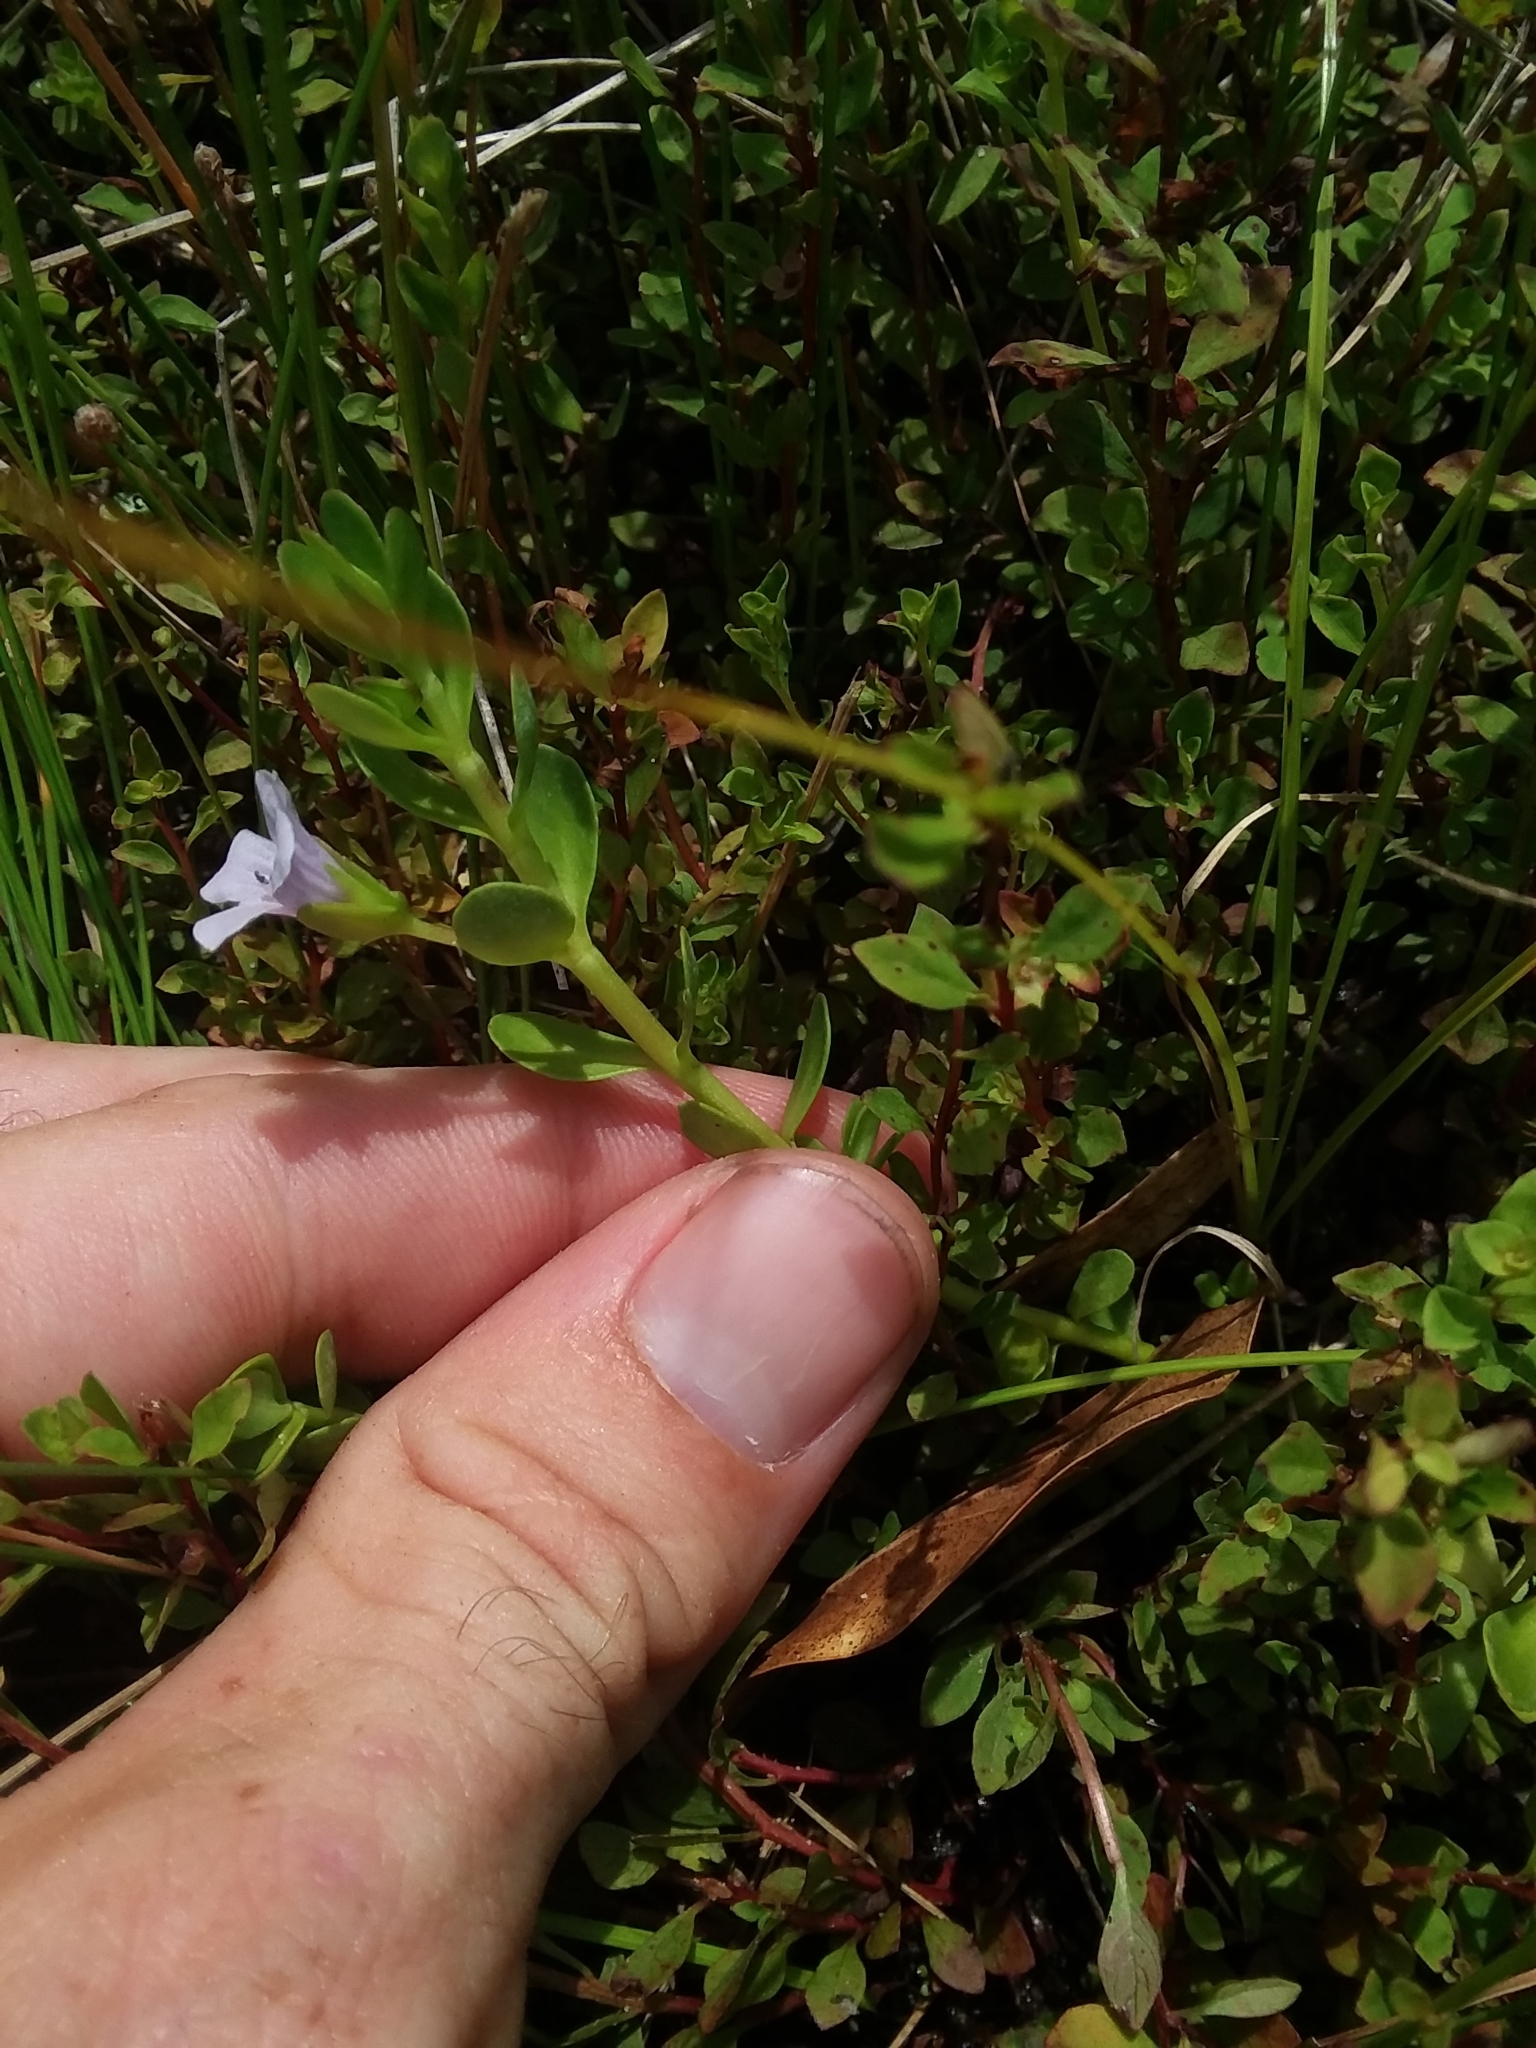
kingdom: Plantae
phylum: Tracheophyta
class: Magnoliopsida
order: Lamiales
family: Plantaginaceae
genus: Bacopa
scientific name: Bacopa monnieri
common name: Indian-pennywort
